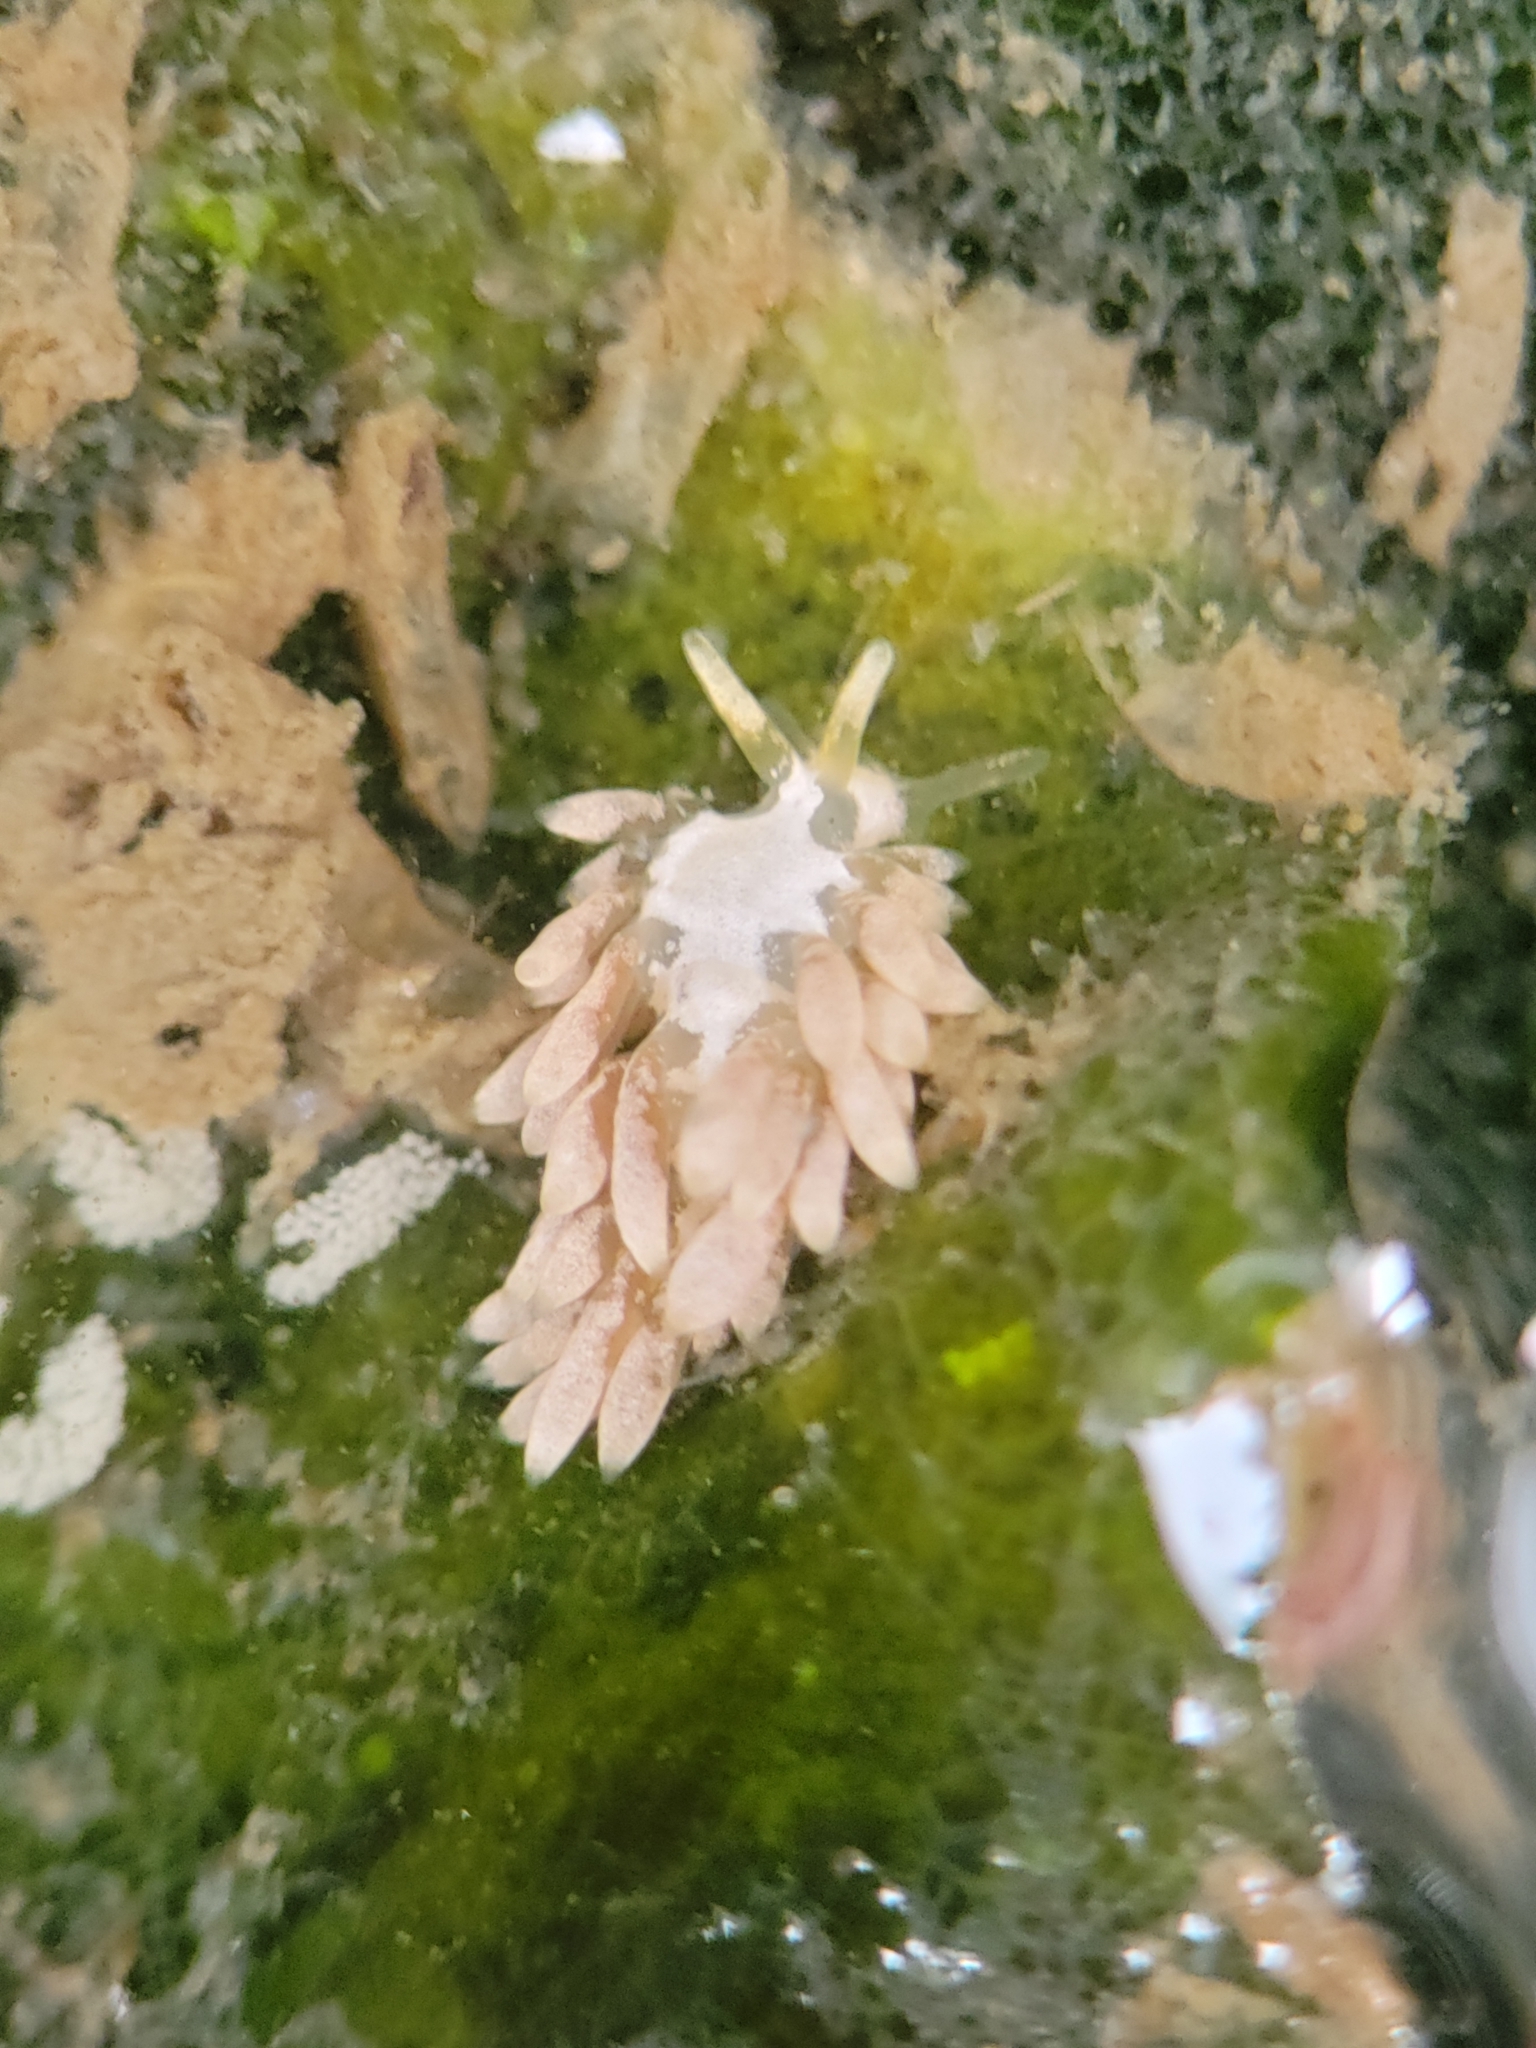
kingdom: Animalia
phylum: Mollusca
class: Gastropoda
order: Nudibranchia
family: Trinchesiidae
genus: Trinchesia
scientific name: Trinchesia albocrusta
